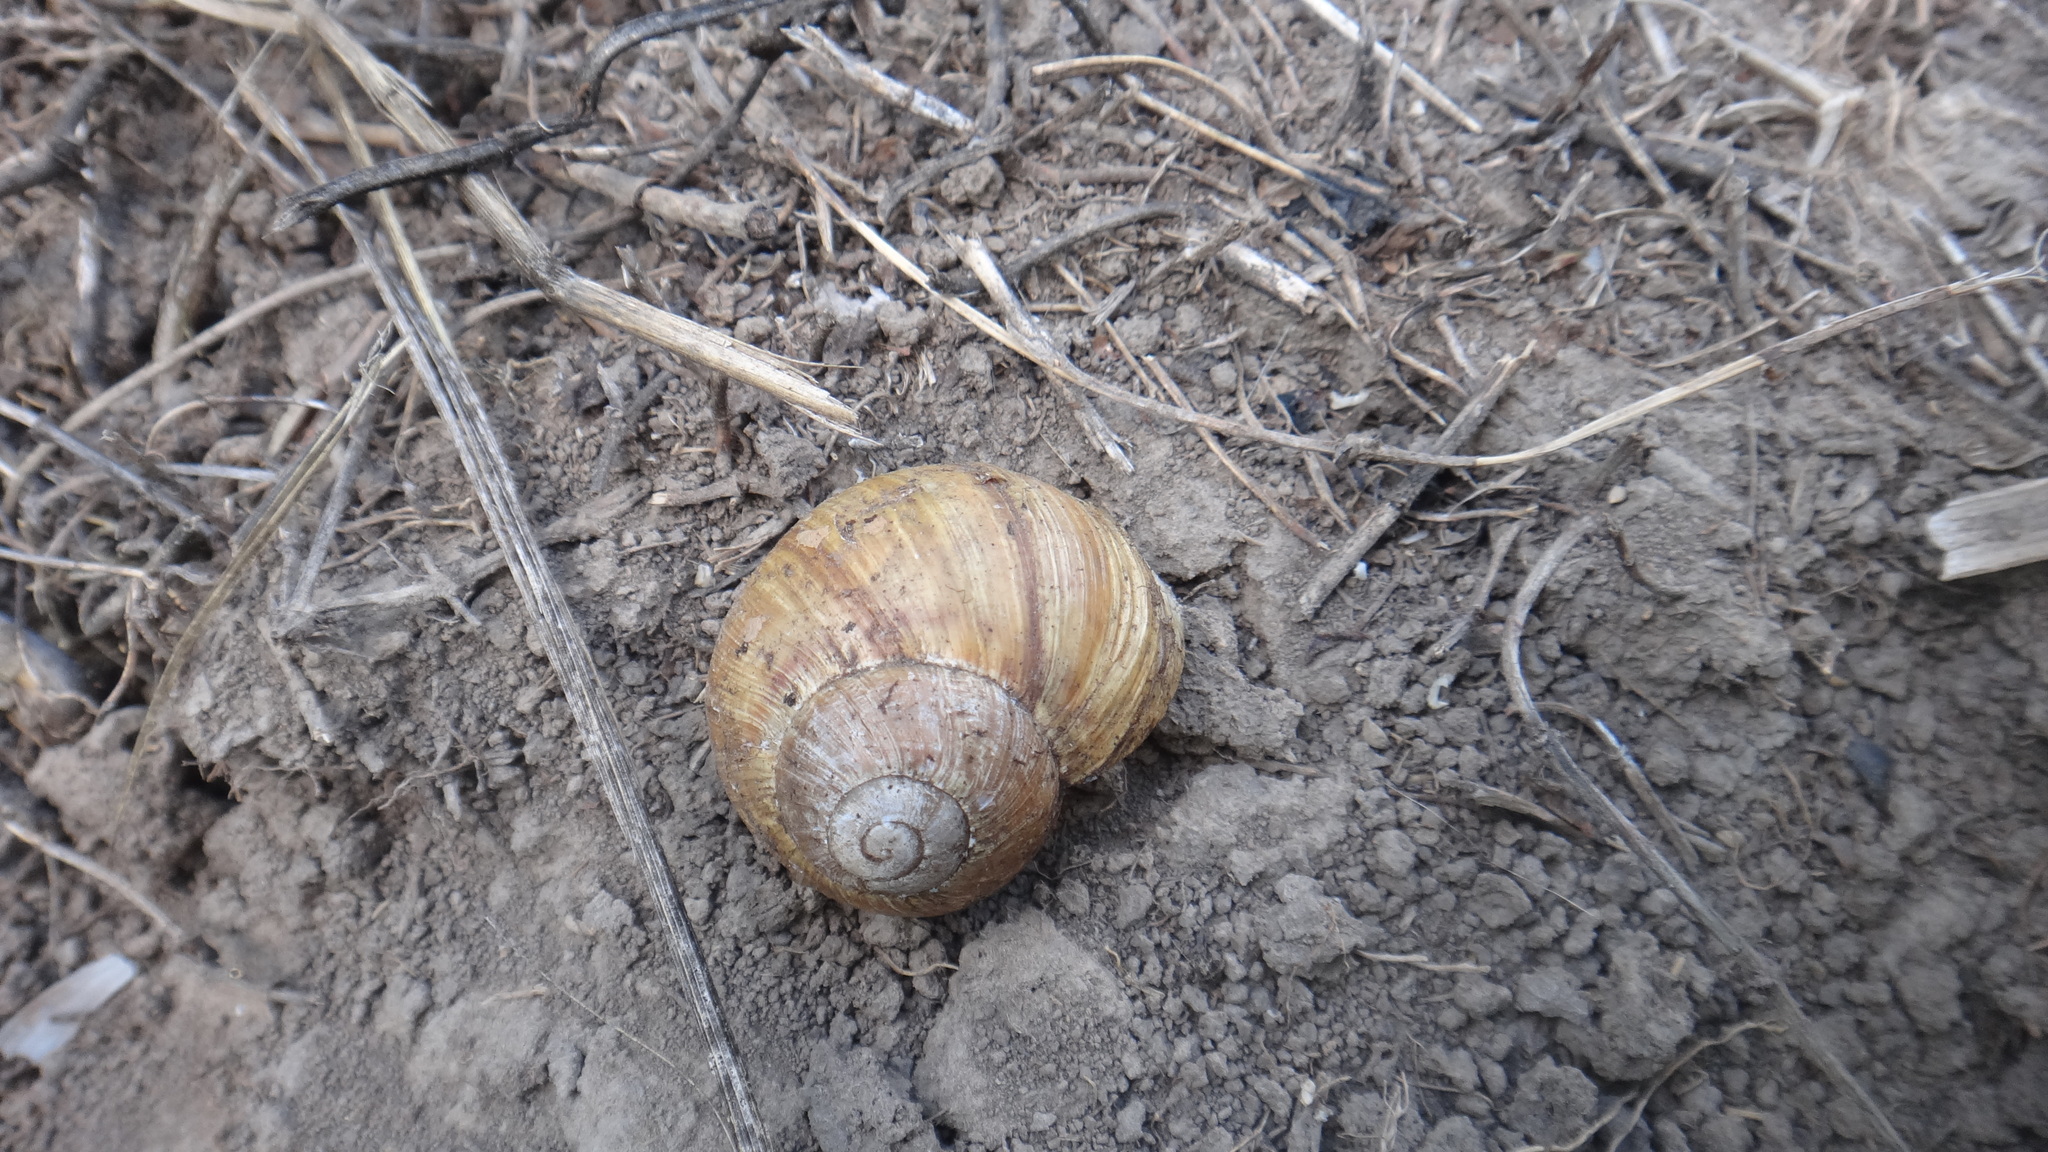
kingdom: Animalia
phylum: Mollusca
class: Gastropoda
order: Stylommatophora
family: Helicidae
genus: Helix
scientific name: Helix pomatia
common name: Roman snail
